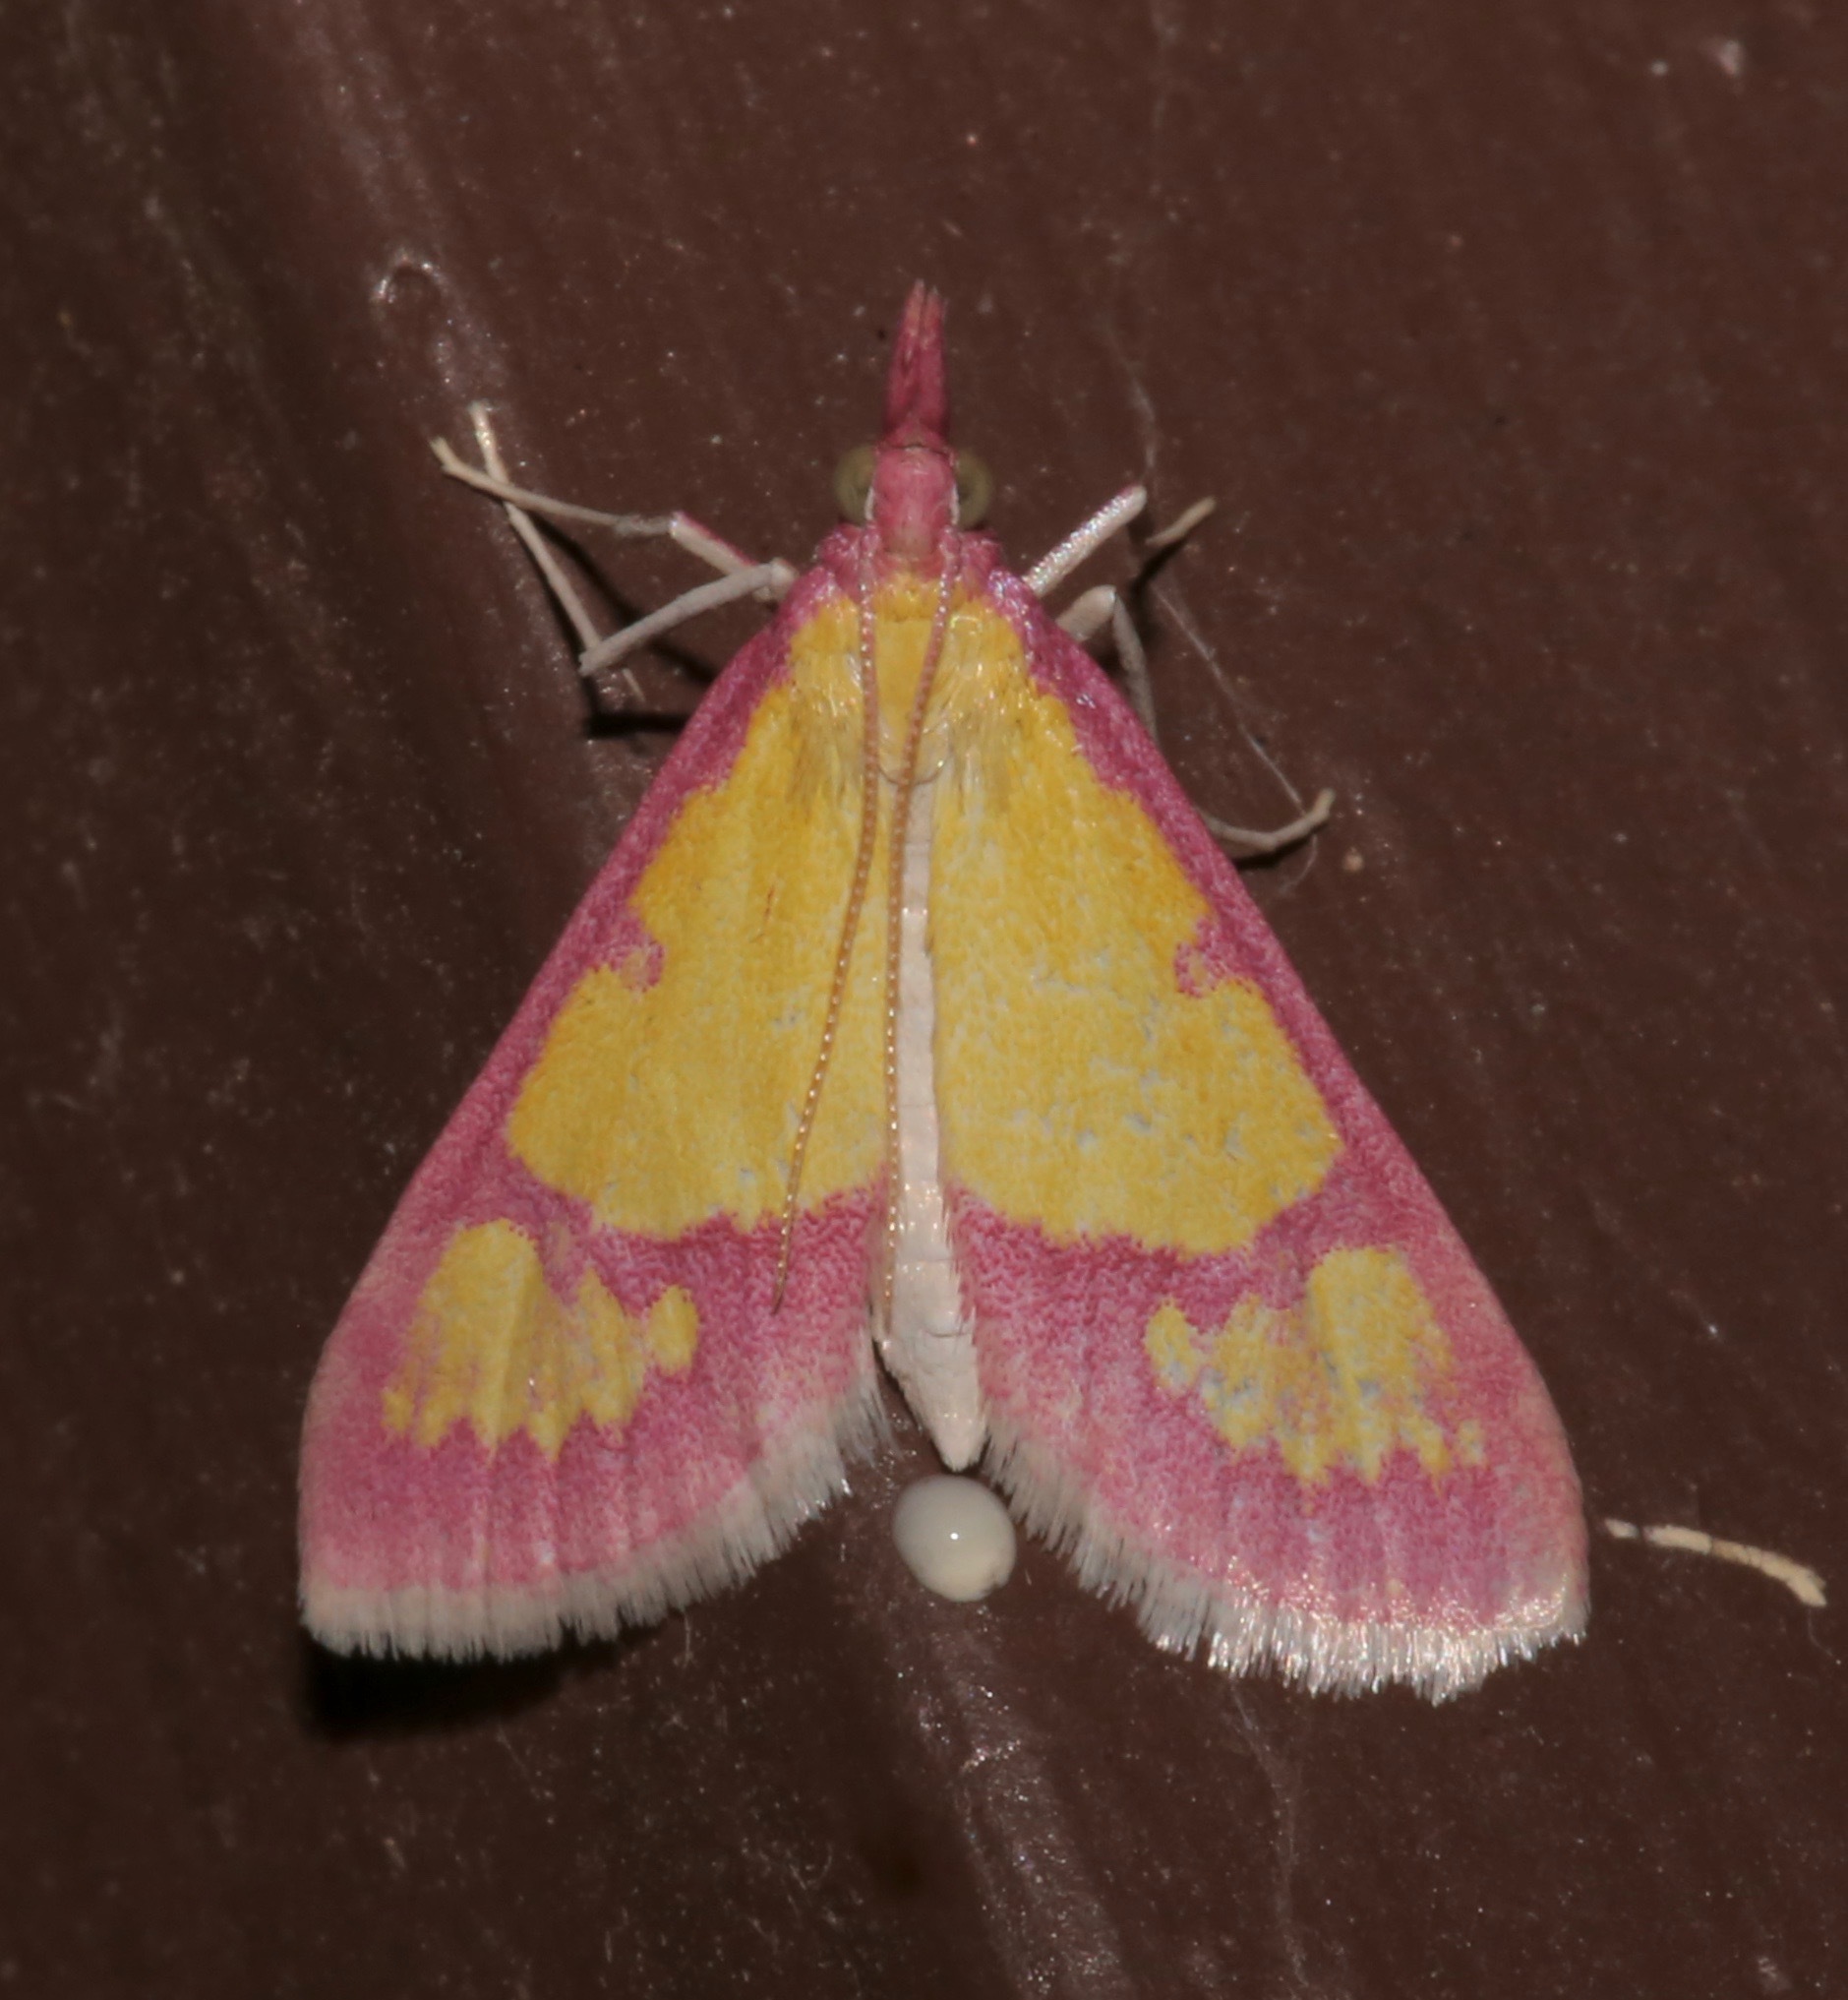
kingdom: Animalia
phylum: Arthropoda
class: Insecta
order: Lepidoptera
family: Crambidae
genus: Choristostigma
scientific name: Choristostigma roseopennalis
